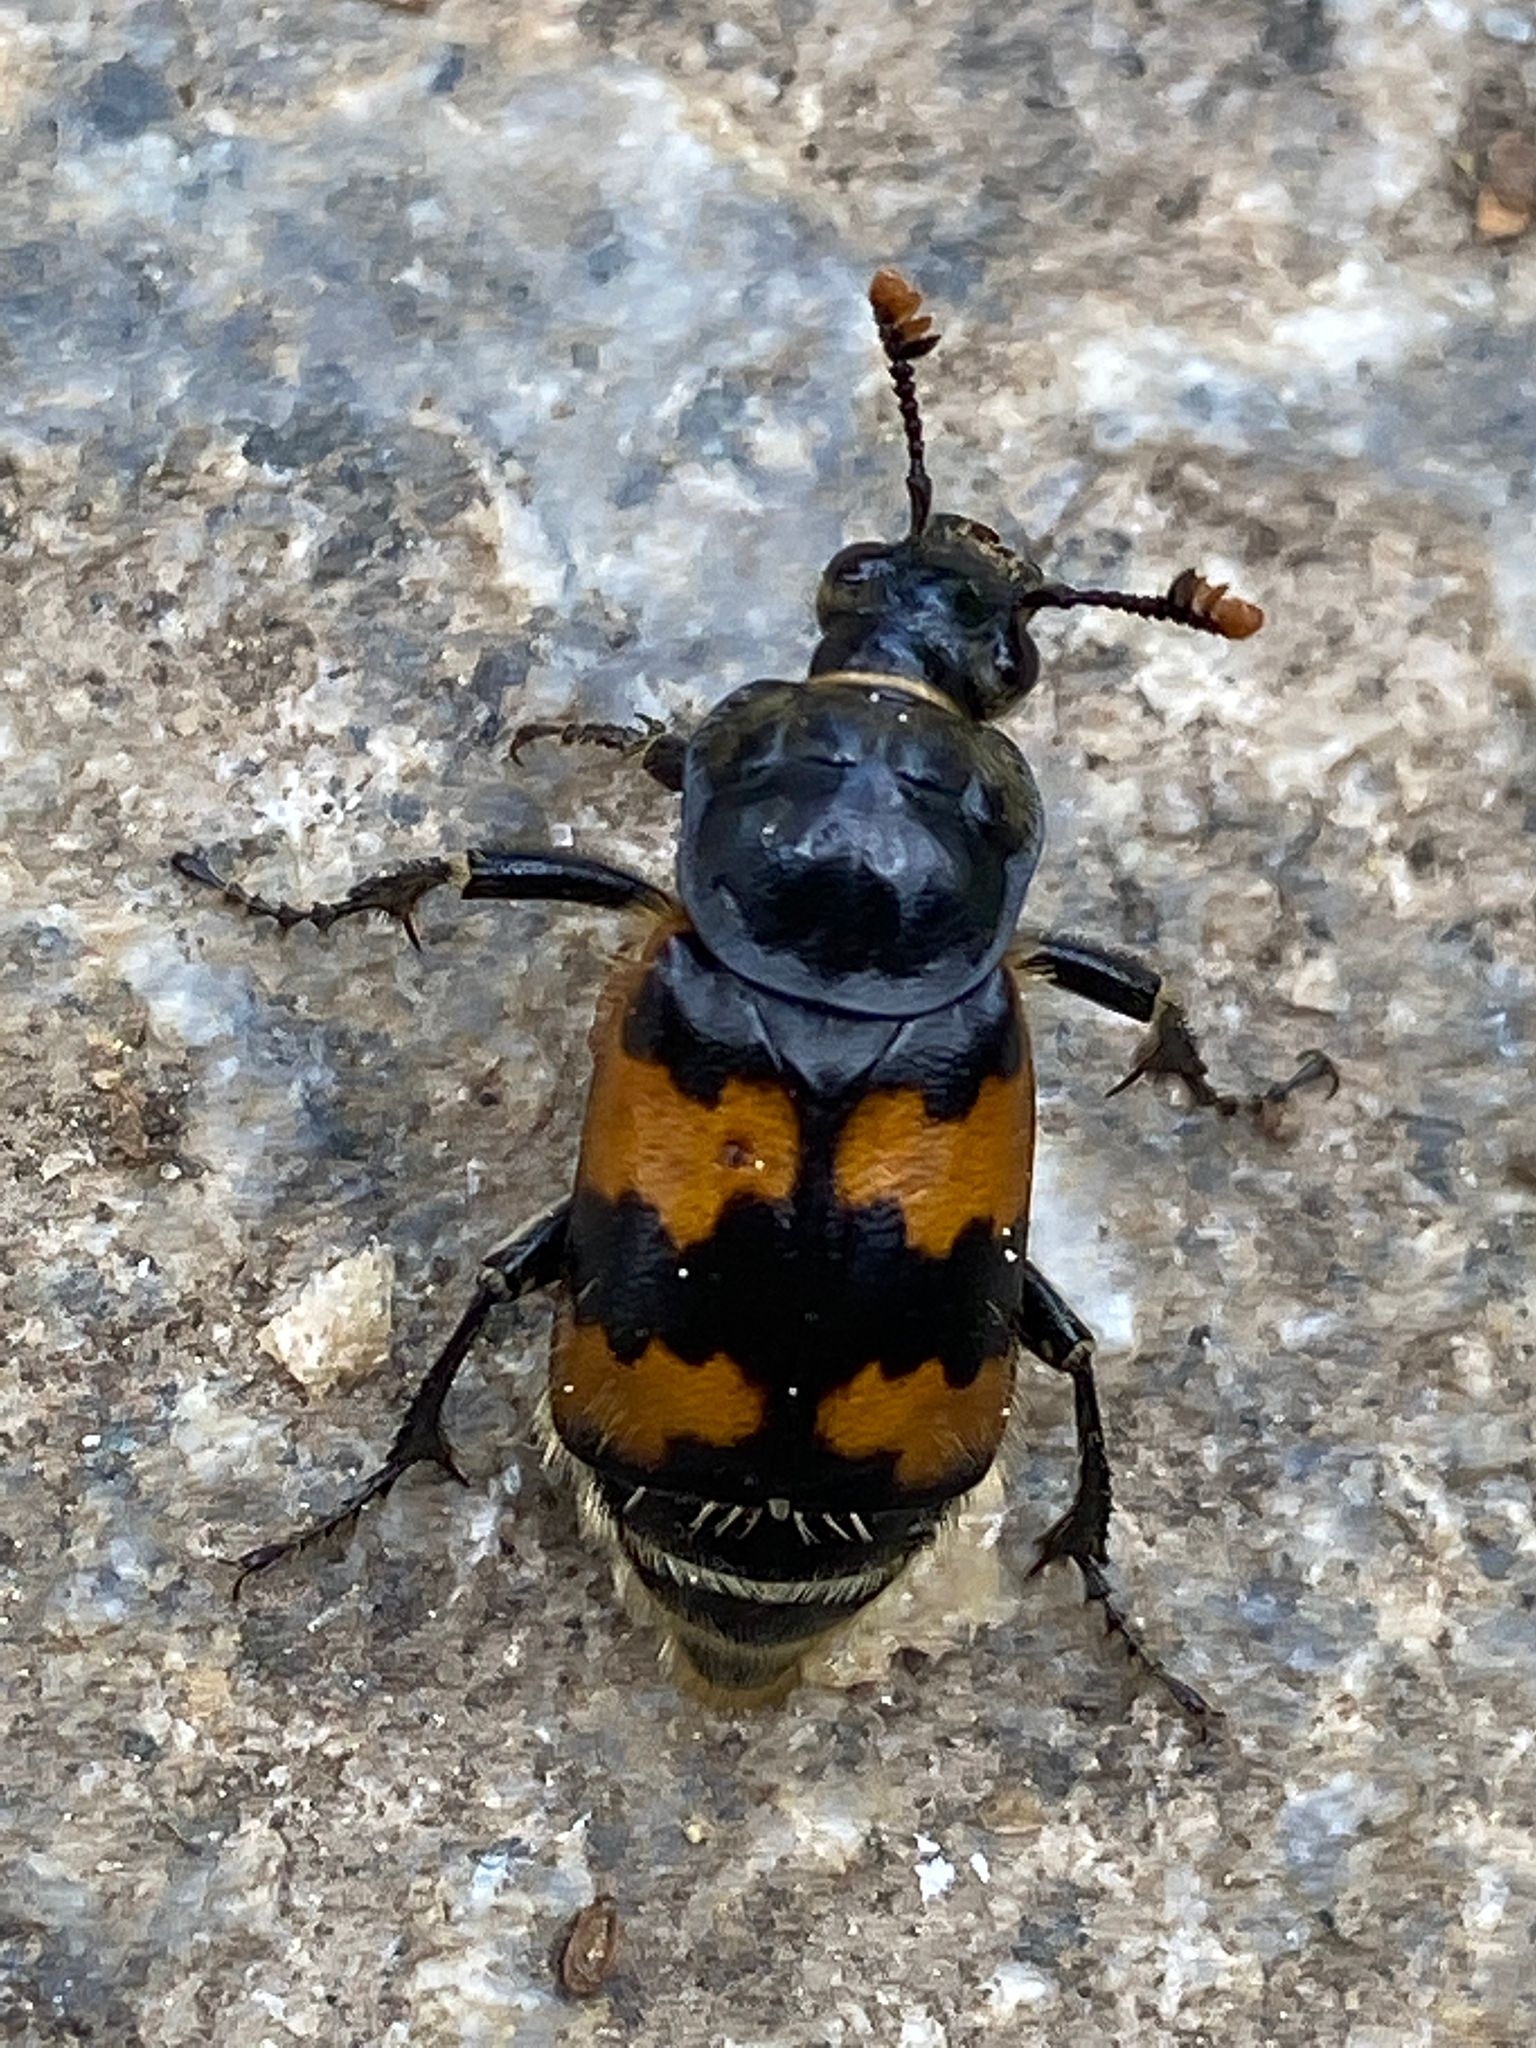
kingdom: Animalia
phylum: Arthropoda
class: Insecta
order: Coleoptera
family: Staphylinidae
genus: Nicrophorus
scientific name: Nicrophorus vespillo
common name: Common burying beetle
